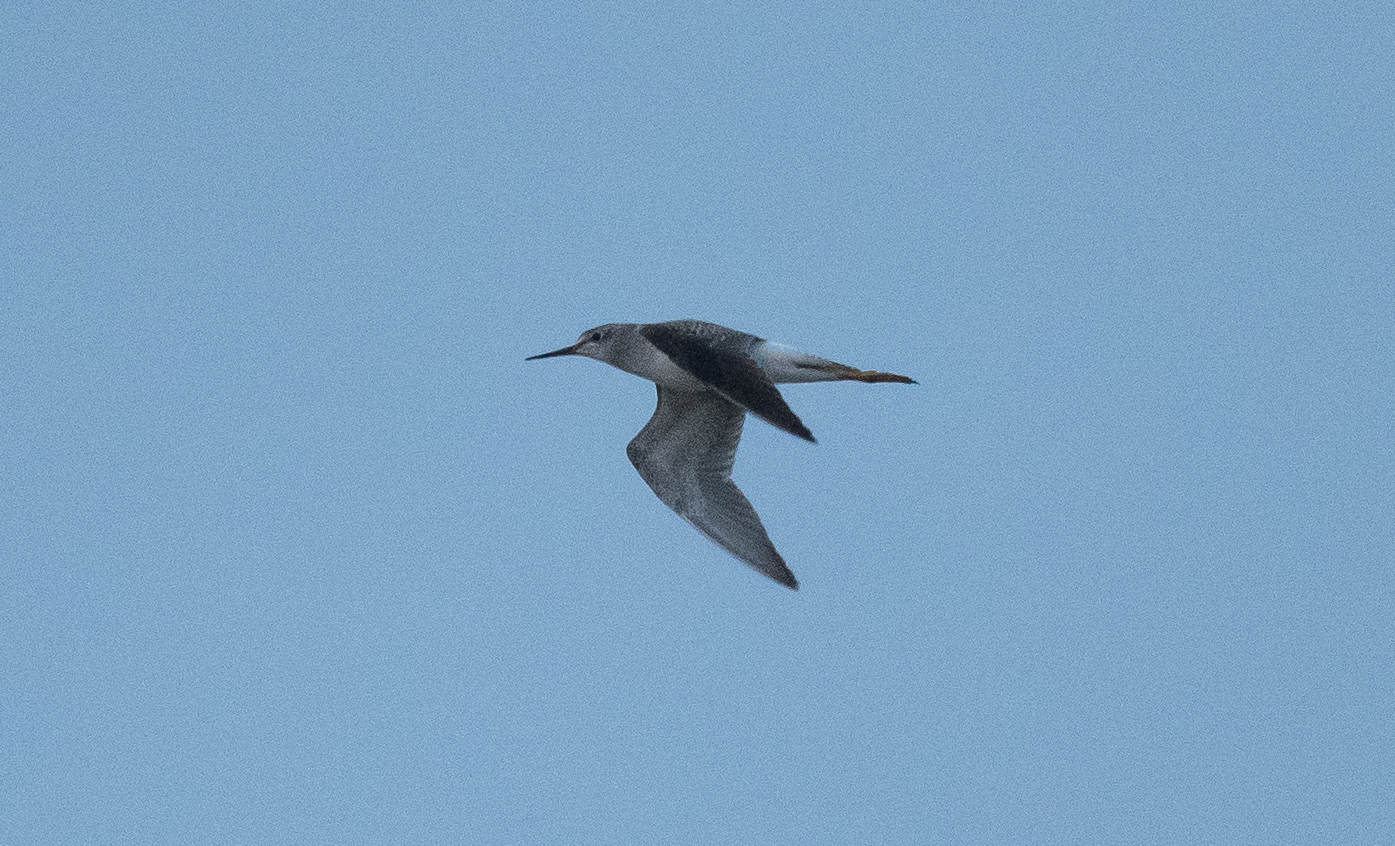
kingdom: Animalia
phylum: Chordata
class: Aves
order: Charadriiformes
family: Scolopacidae
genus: Tringa
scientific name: Tringa flavipes
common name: Lesser yellowlegs
